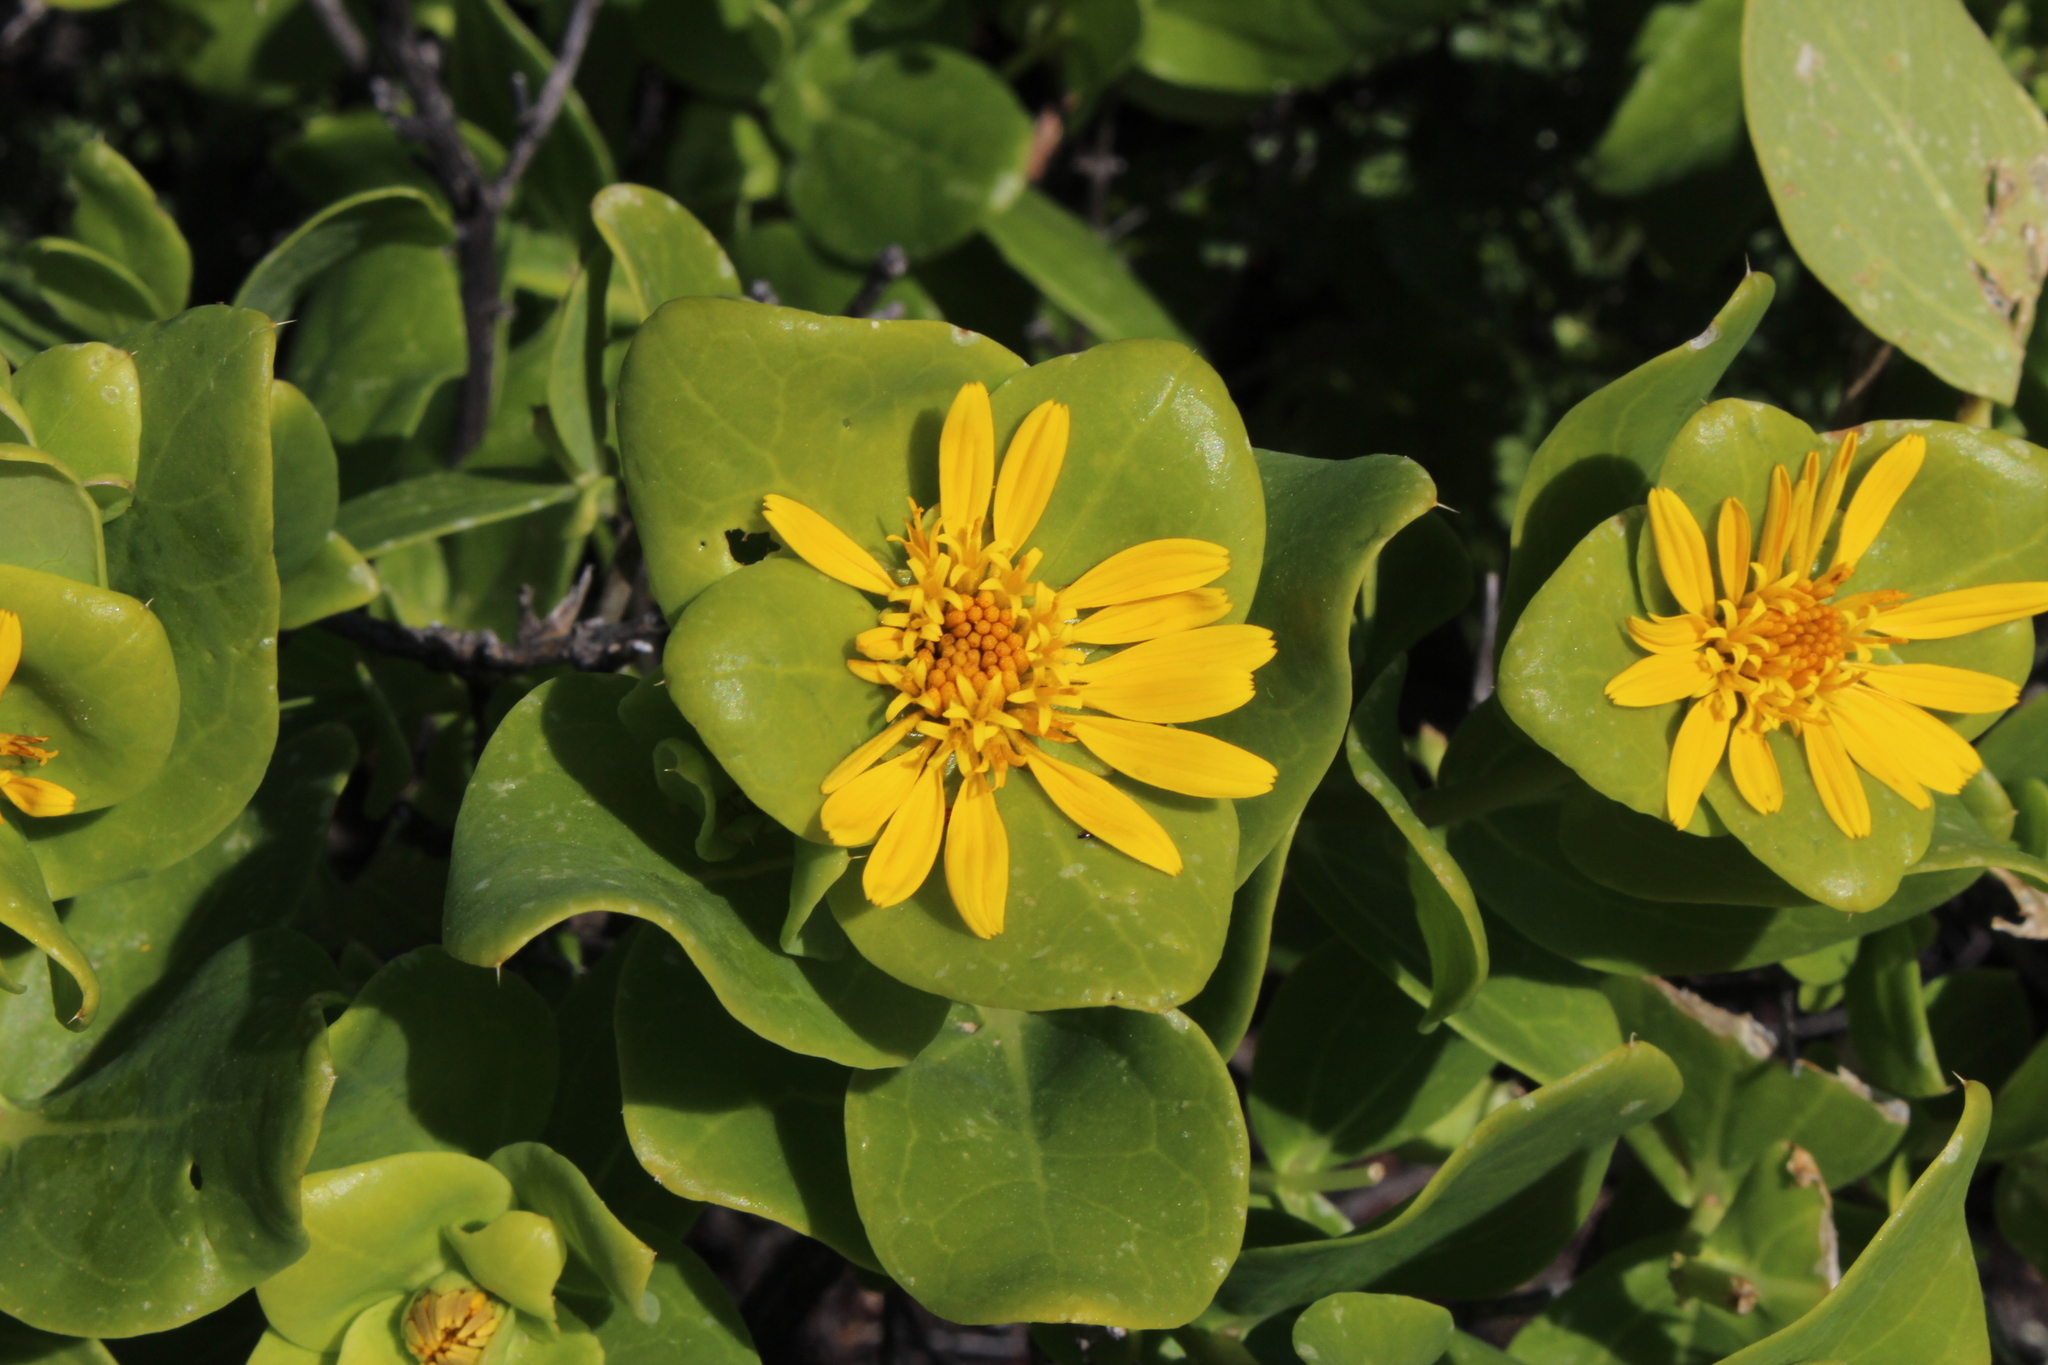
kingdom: Plantae
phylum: Tracheophyta
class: Magnoliopsida
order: Asterales
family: Asteraceae
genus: Didelta
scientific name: Didelta spinosa
